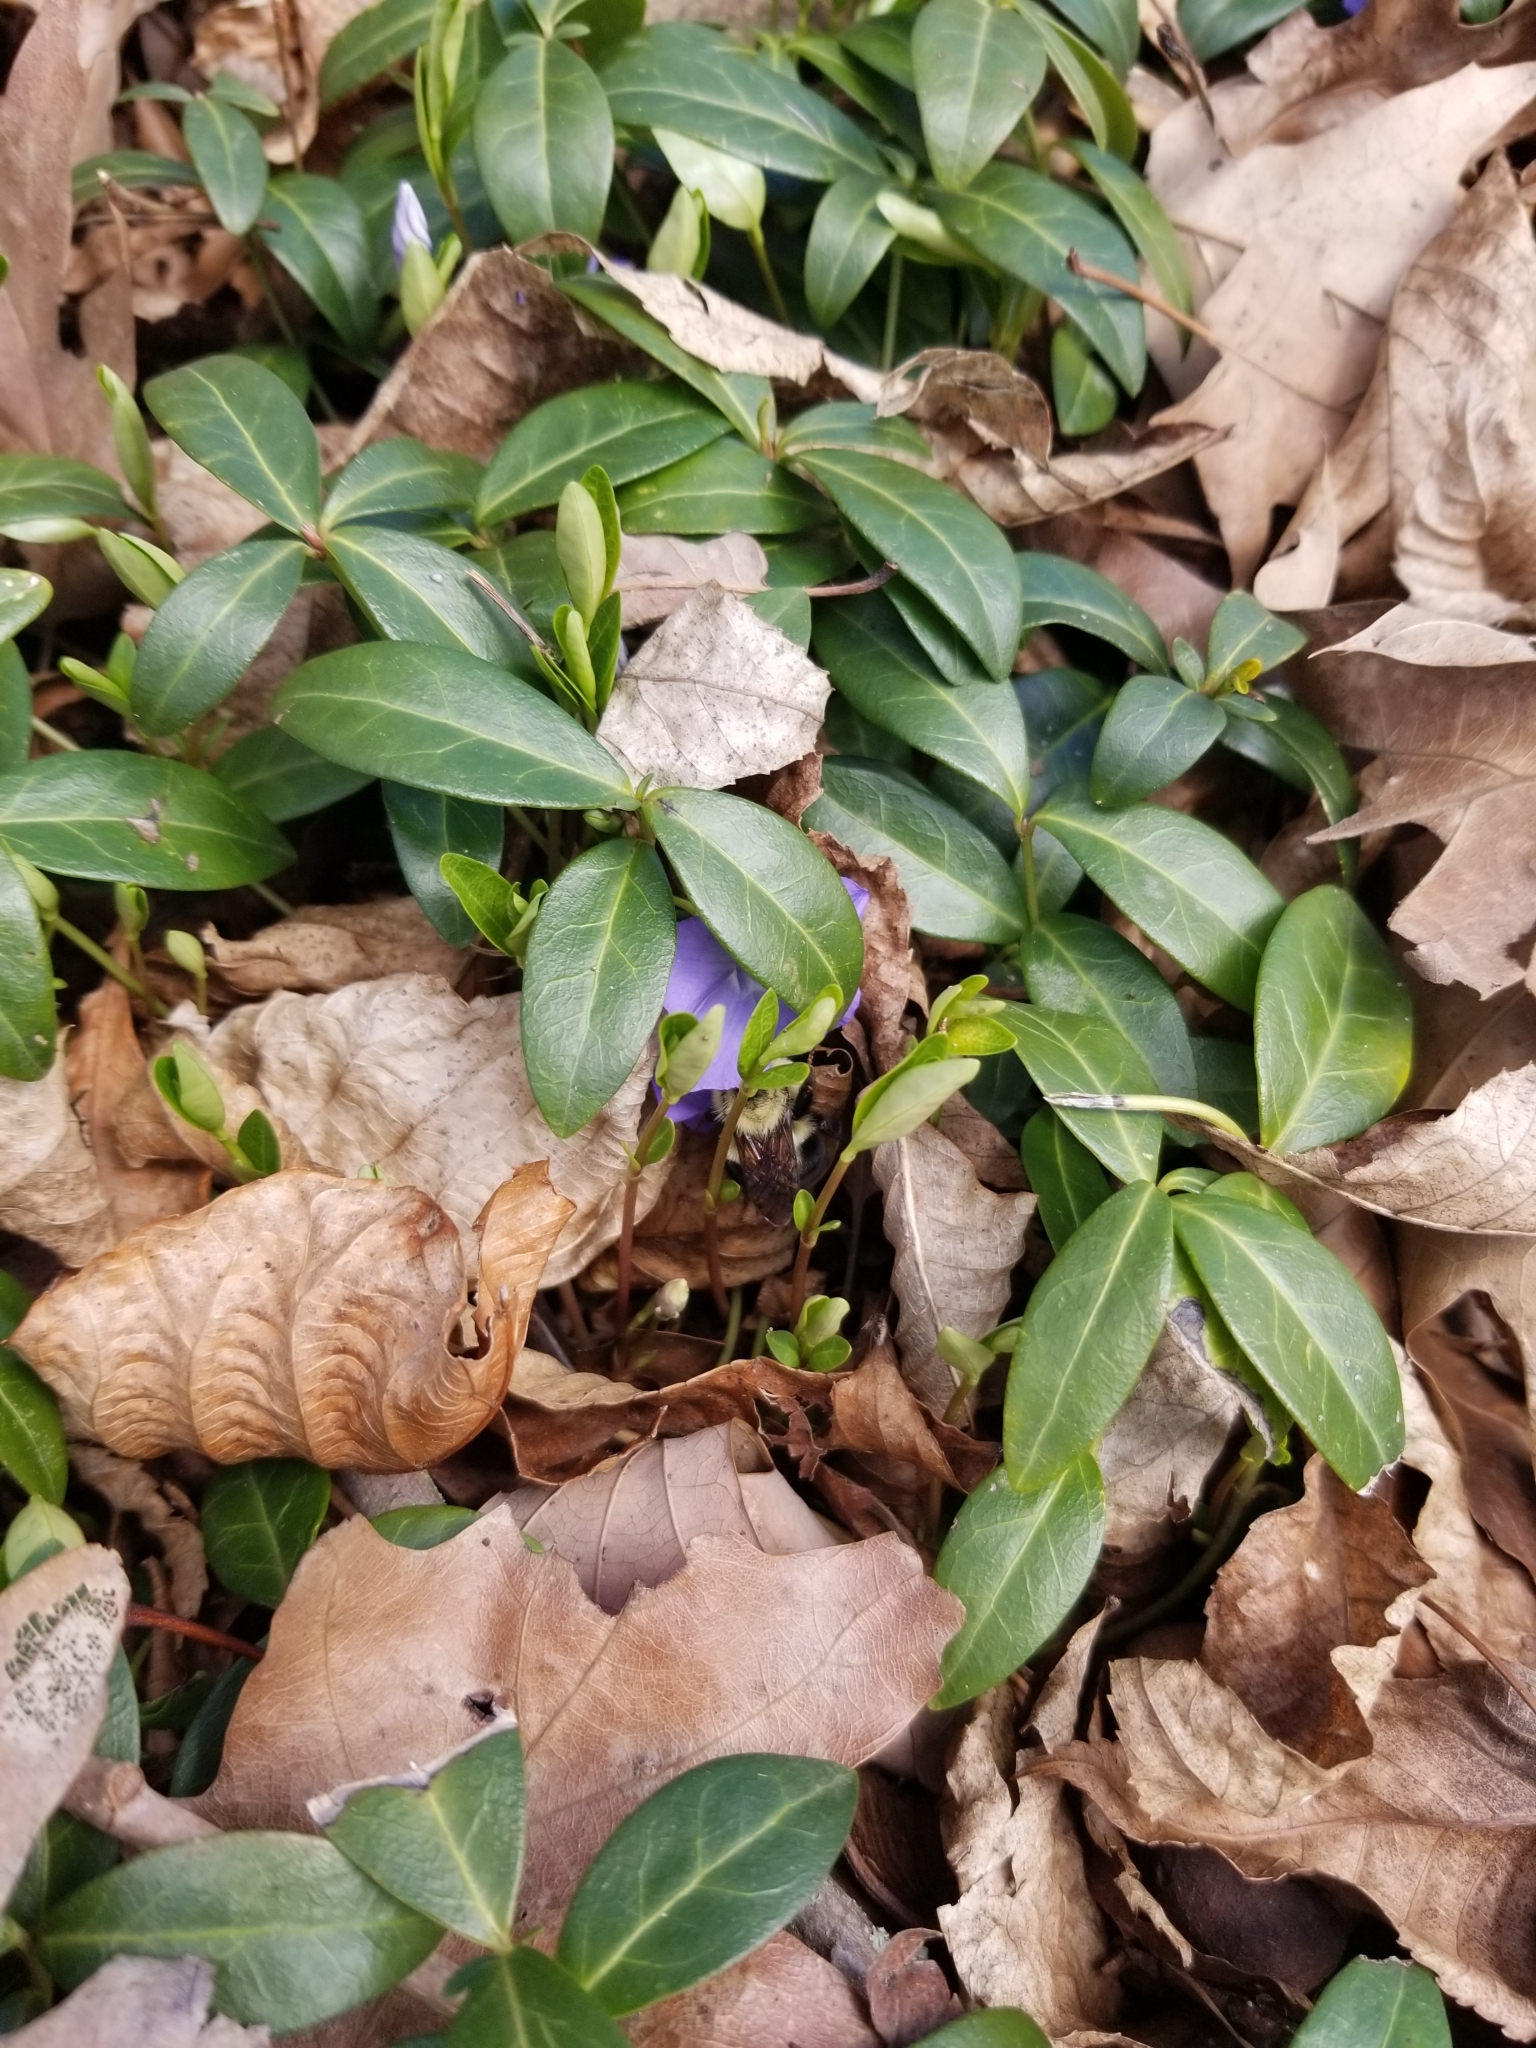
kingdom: Animalia
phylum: Arthropoda
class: Insecta
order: Hymenoptera
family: Apidae
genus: Bombus
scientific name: Bombus bimaculatus
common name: Two-spotted bumble bee
